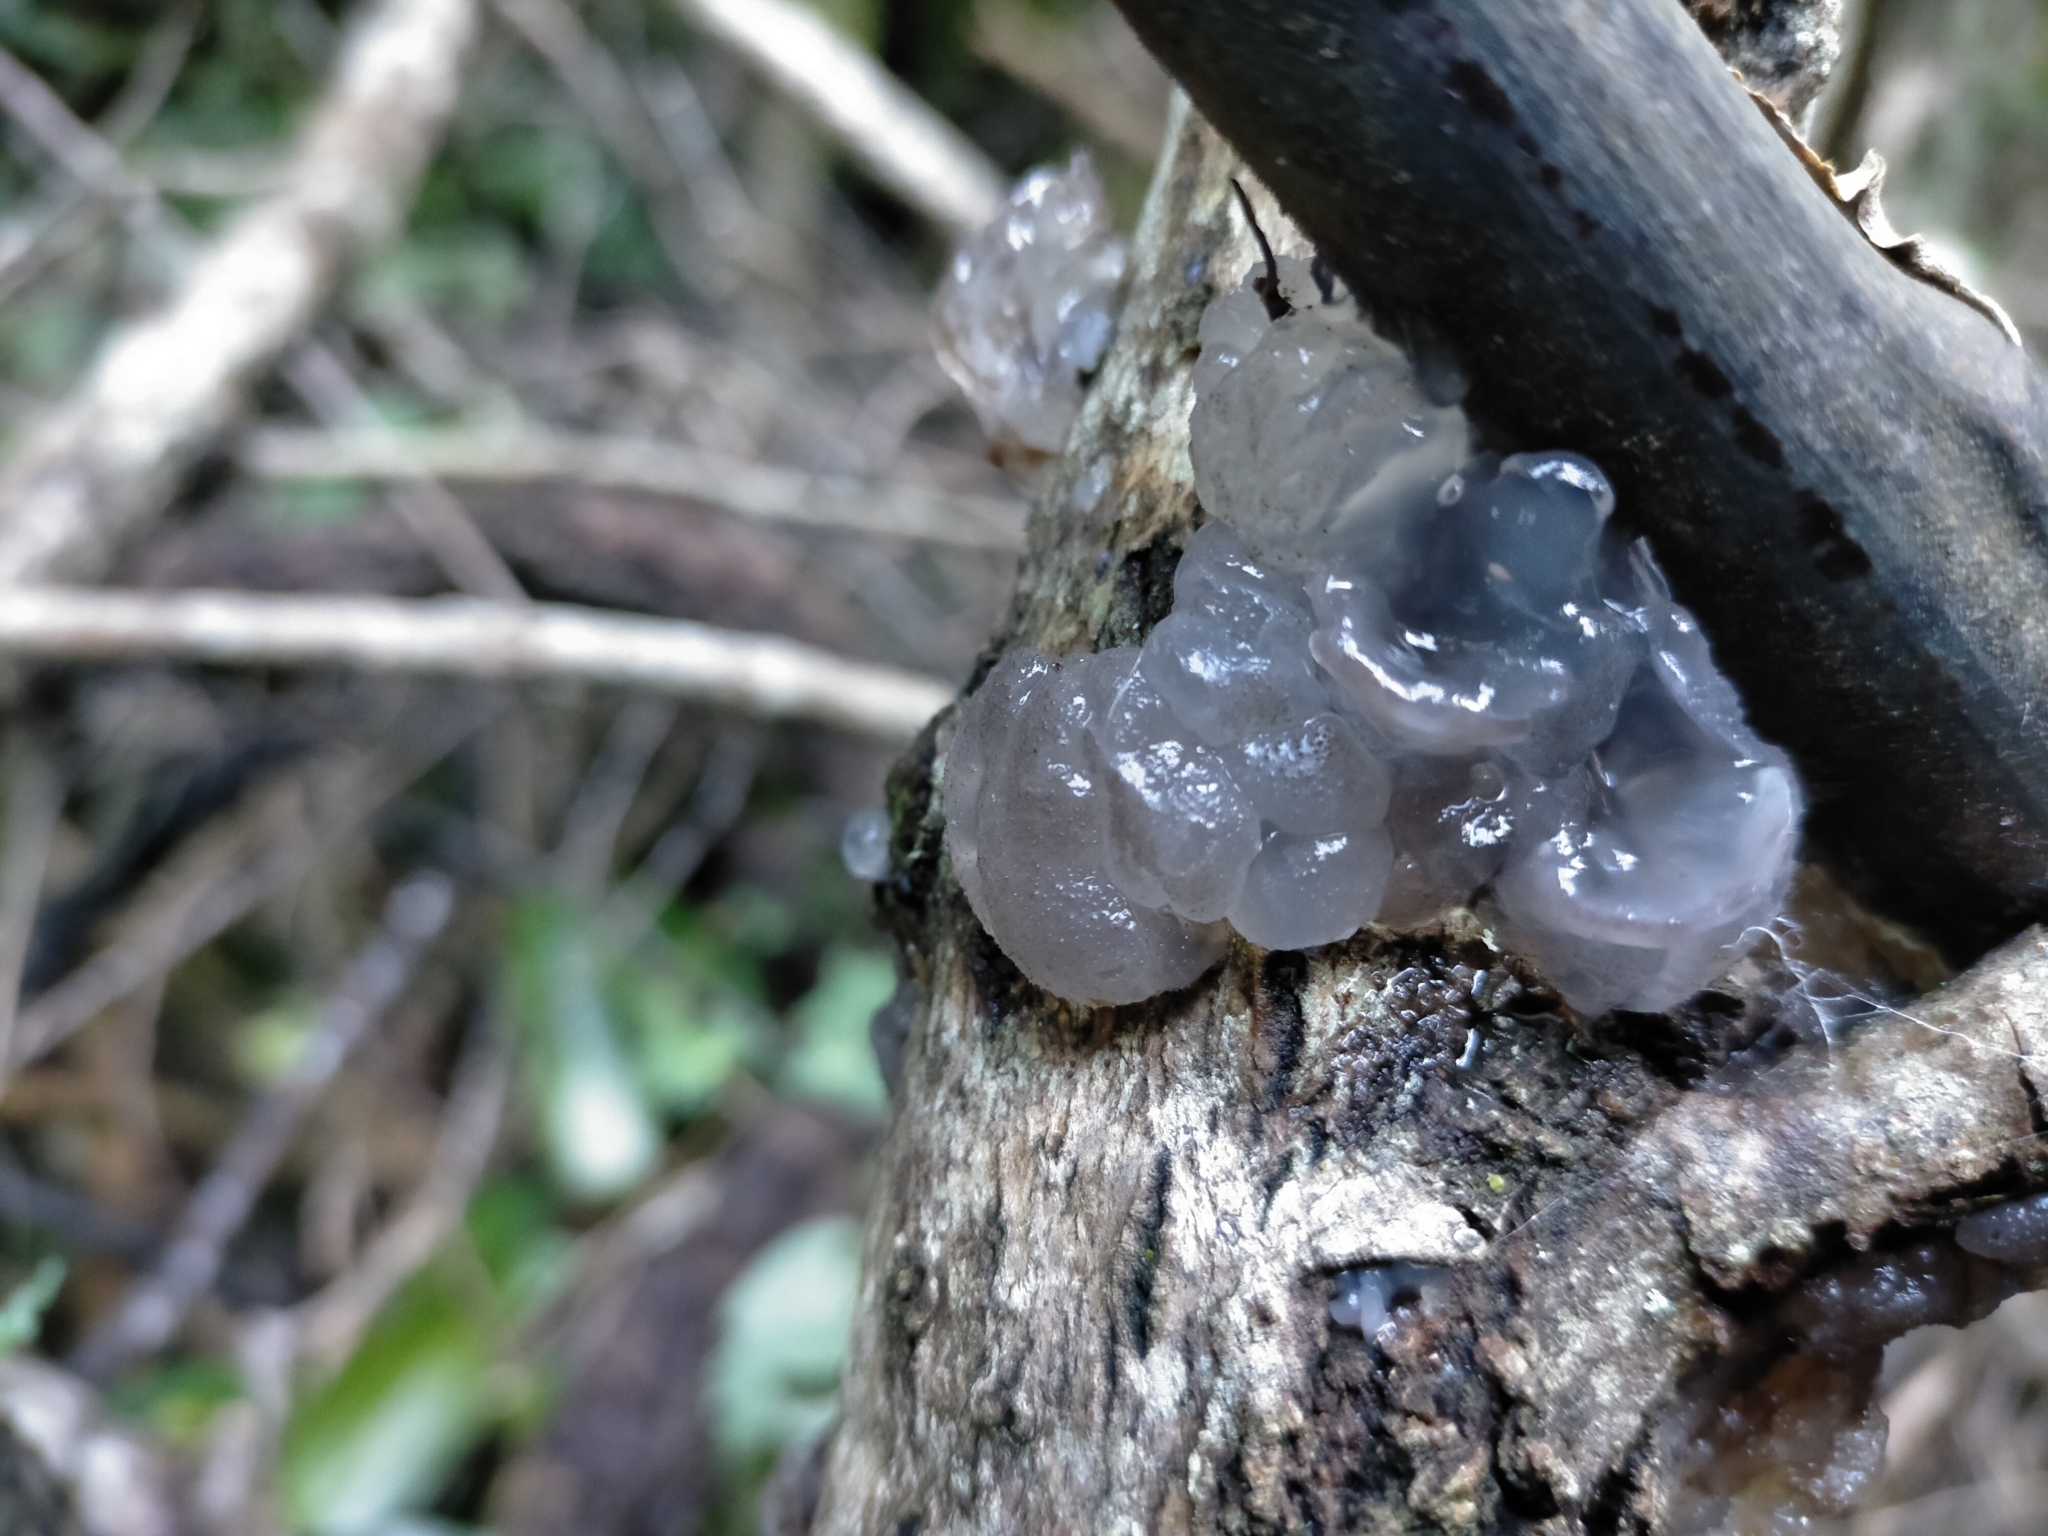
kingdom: Fungi
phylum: Basidiomycota
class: Agaricomycetes
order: Auriculariales
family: Auriculariaceae
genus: Tremellochaete
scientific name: Tremellochaete
